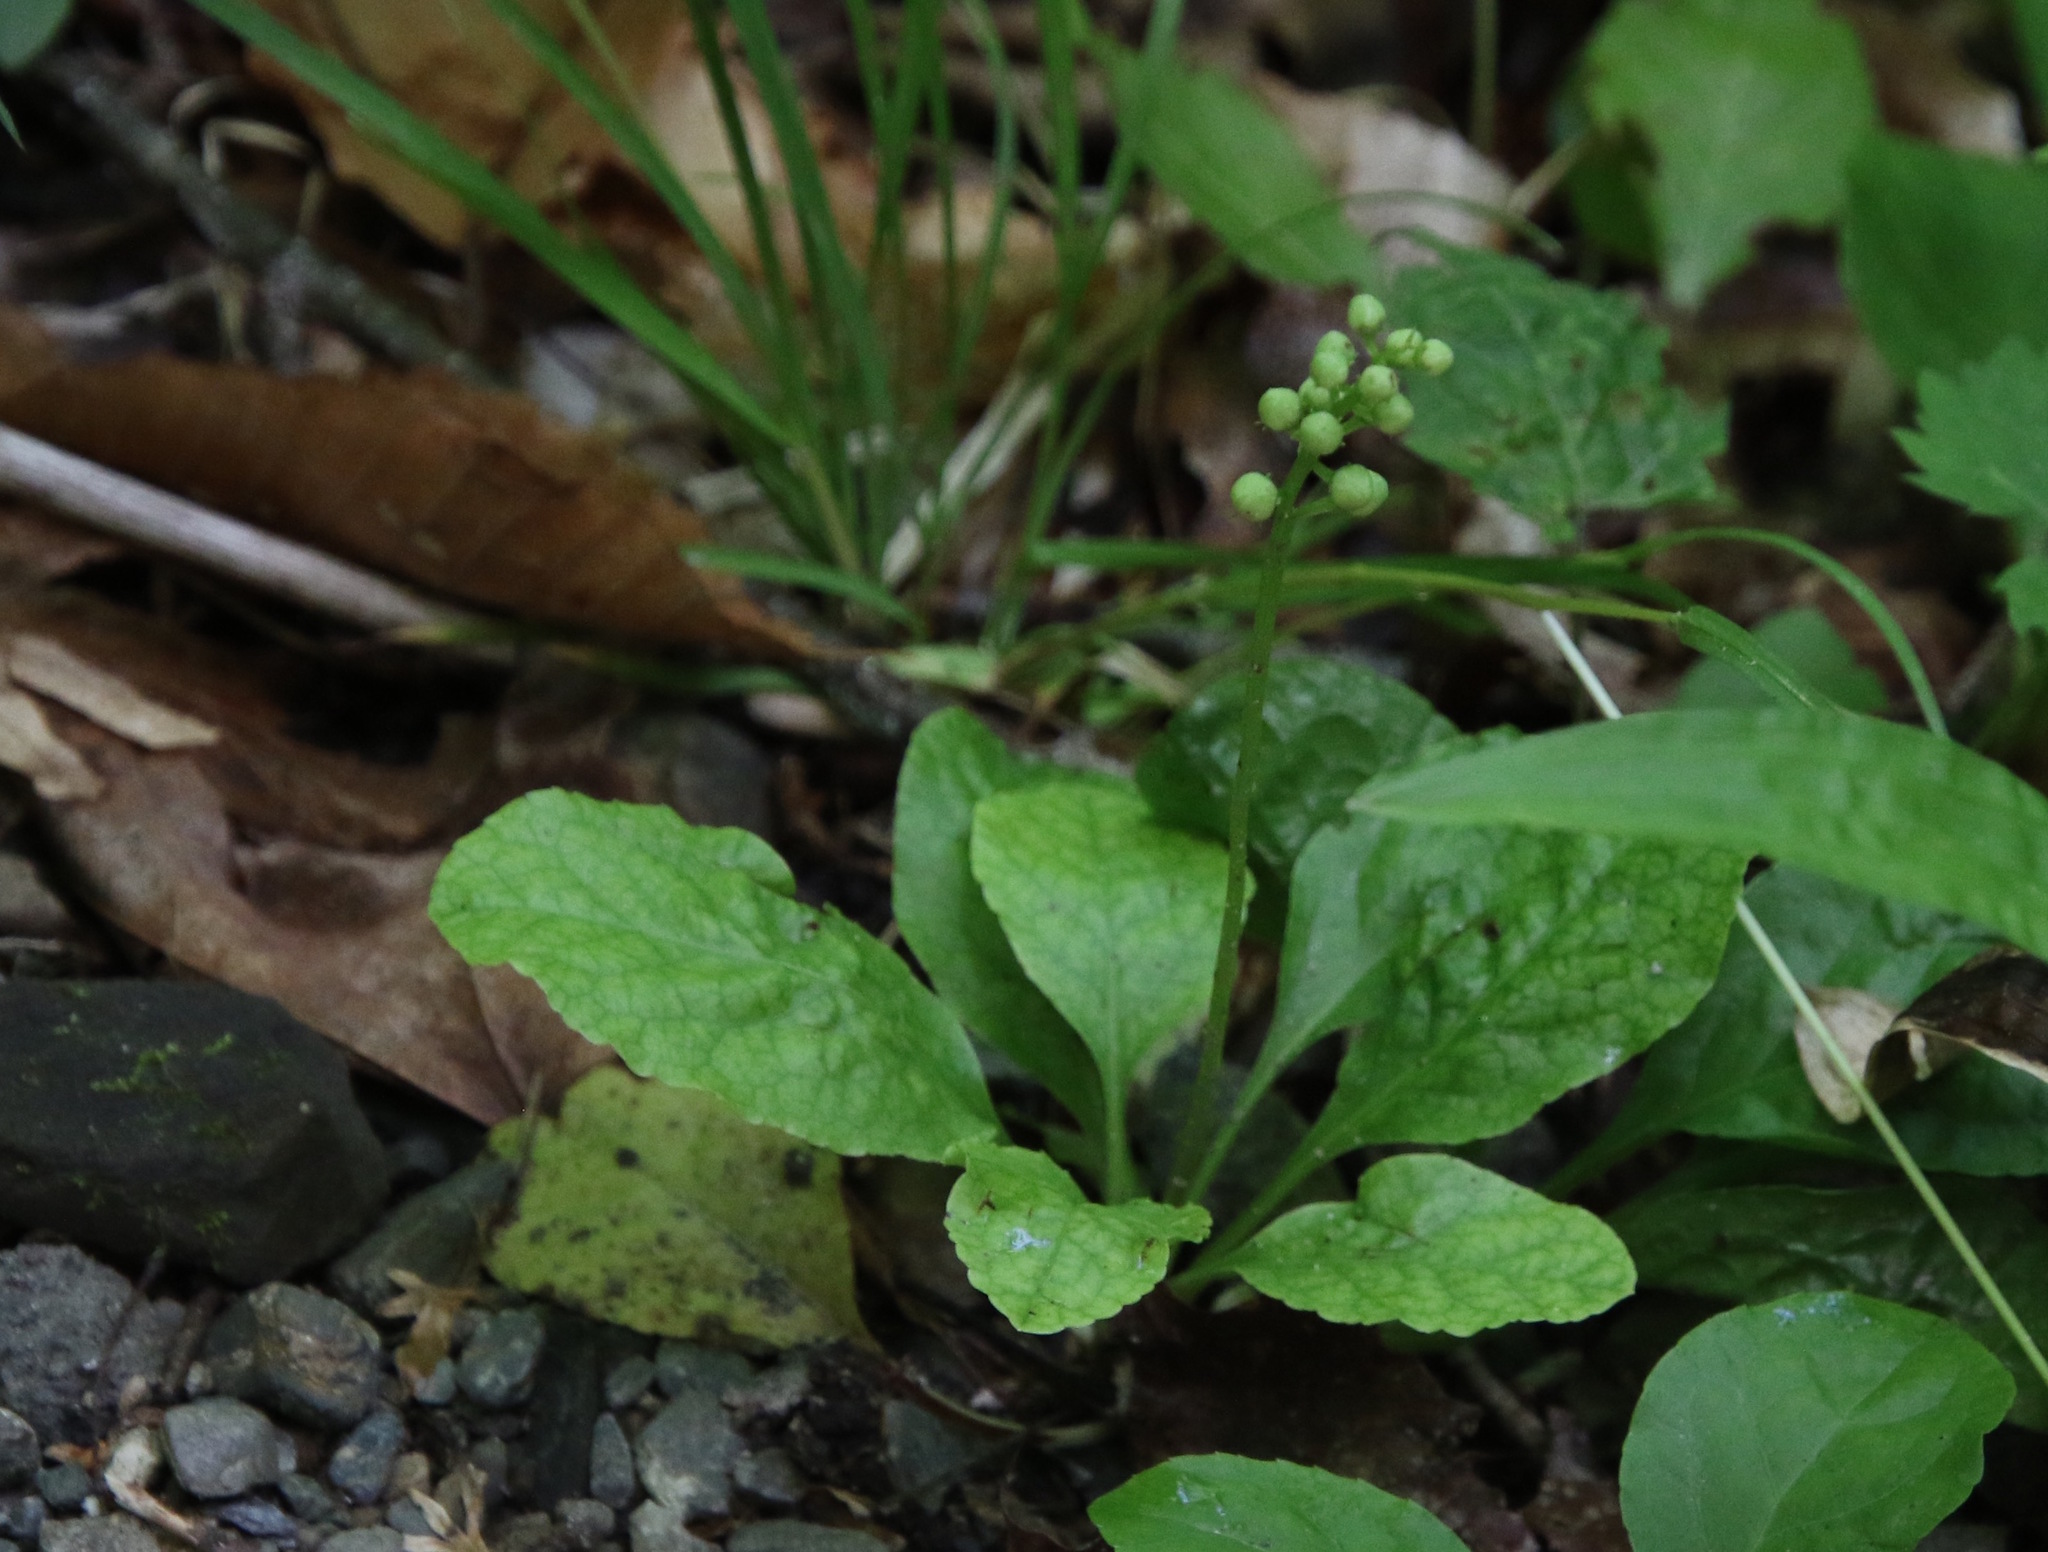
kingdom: Plantae
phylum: Tracheophyta
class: Magnoliopsida
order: Ericales
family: Ericaceae
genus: Pyrola
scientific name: Pyrola elliptica
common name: Shinleaf
